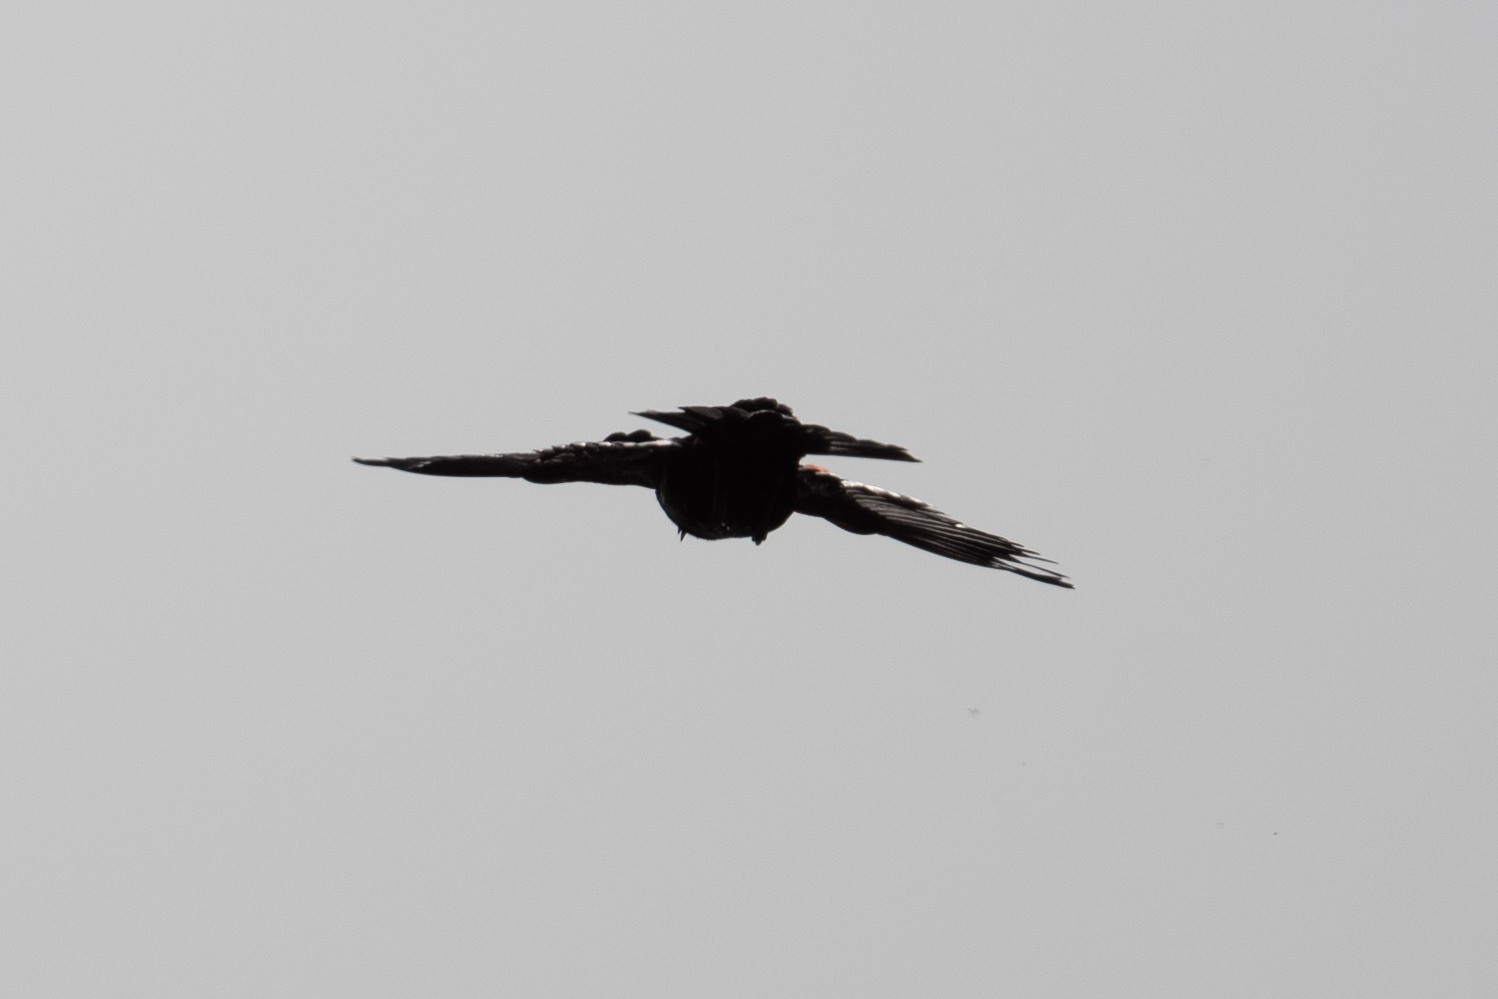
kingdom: Animalia
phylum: Chordata
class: Aves
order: Passeriformes
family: Icteridae
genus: Agelaius
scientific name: Agelaius
